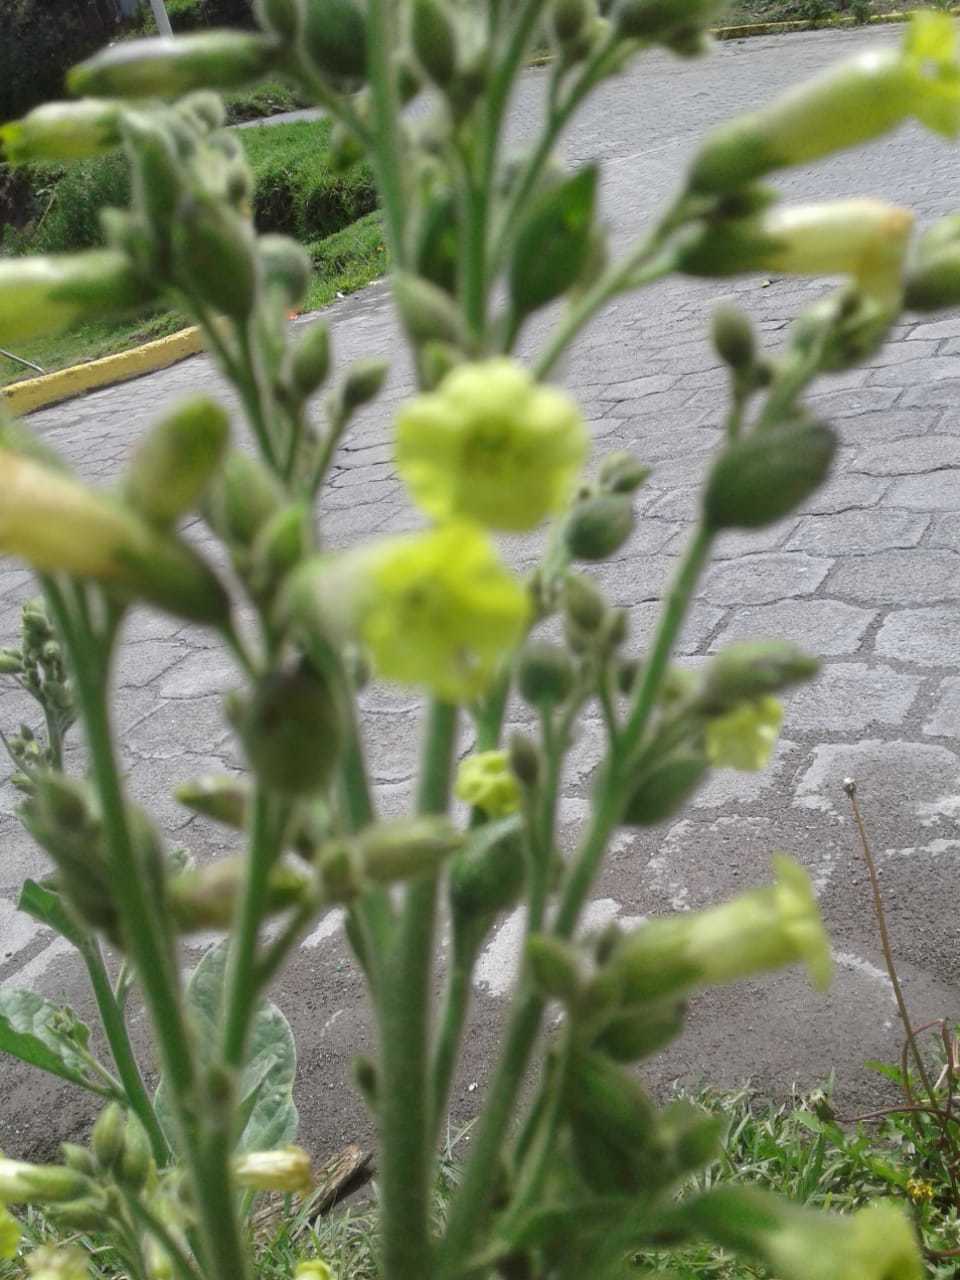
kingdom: Plantae
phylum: Tracheophyta
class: Magnoliopsida
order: Solanales
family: Solanaceae
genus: Nicotiana
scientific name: Nicotiana rustica
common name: Wild tobacco
